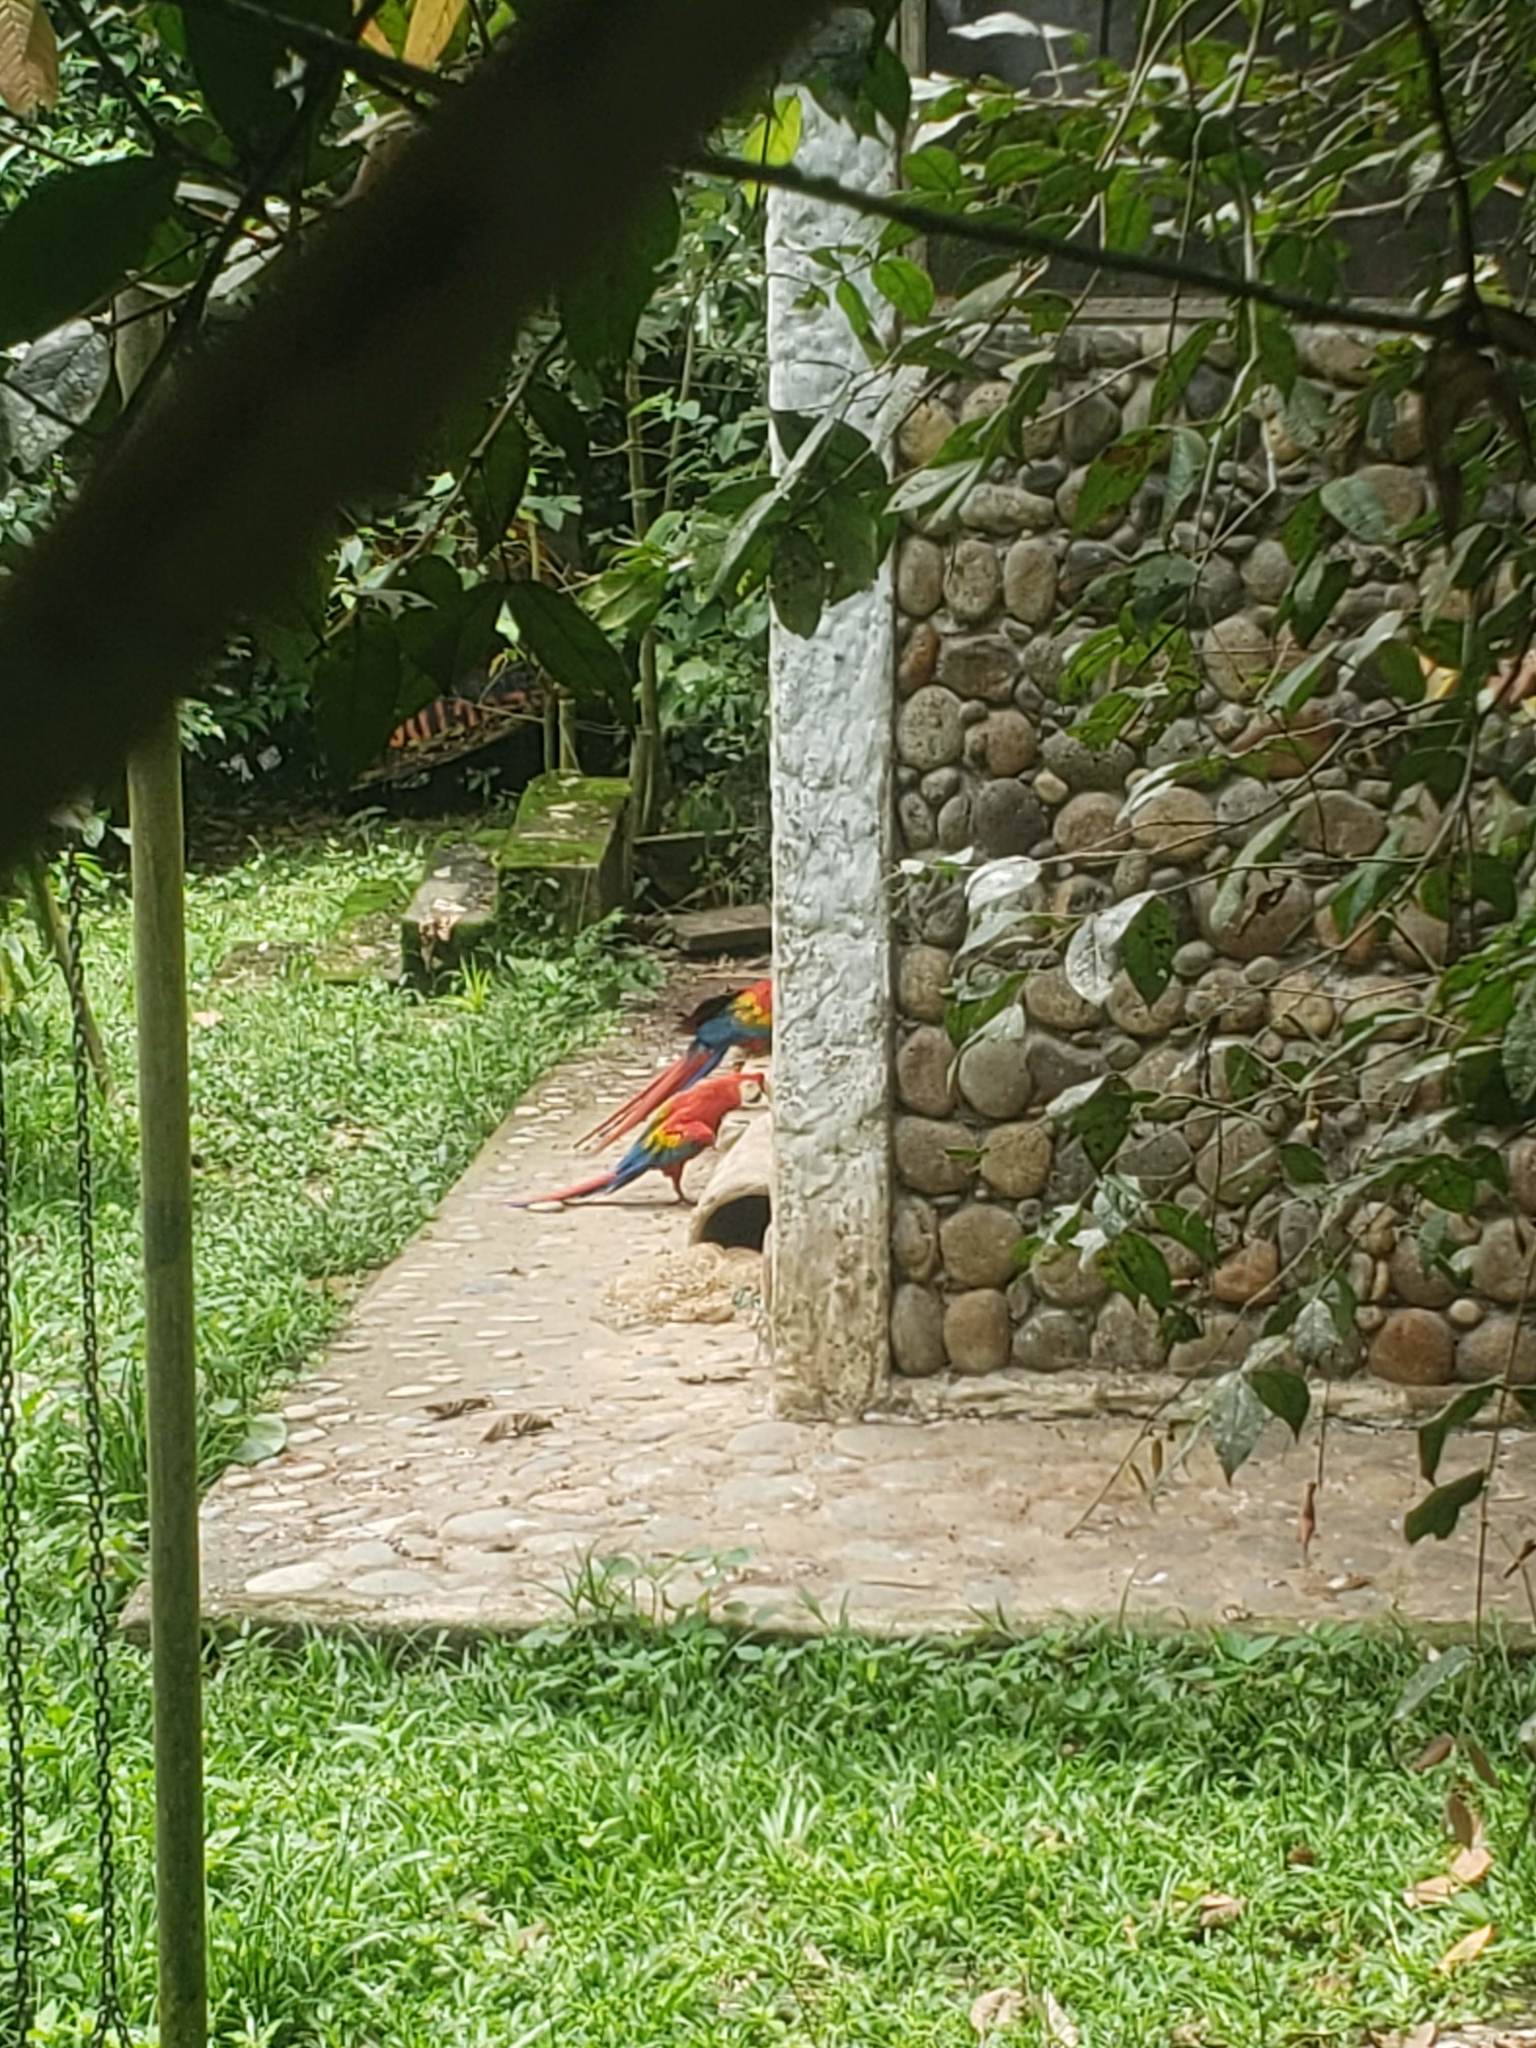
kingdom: Animalia
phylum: Chordata
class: Aves
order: Psittaciformes
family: Psittacidae
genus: Ara
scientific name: Ara macao
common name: Scarlet macaw
